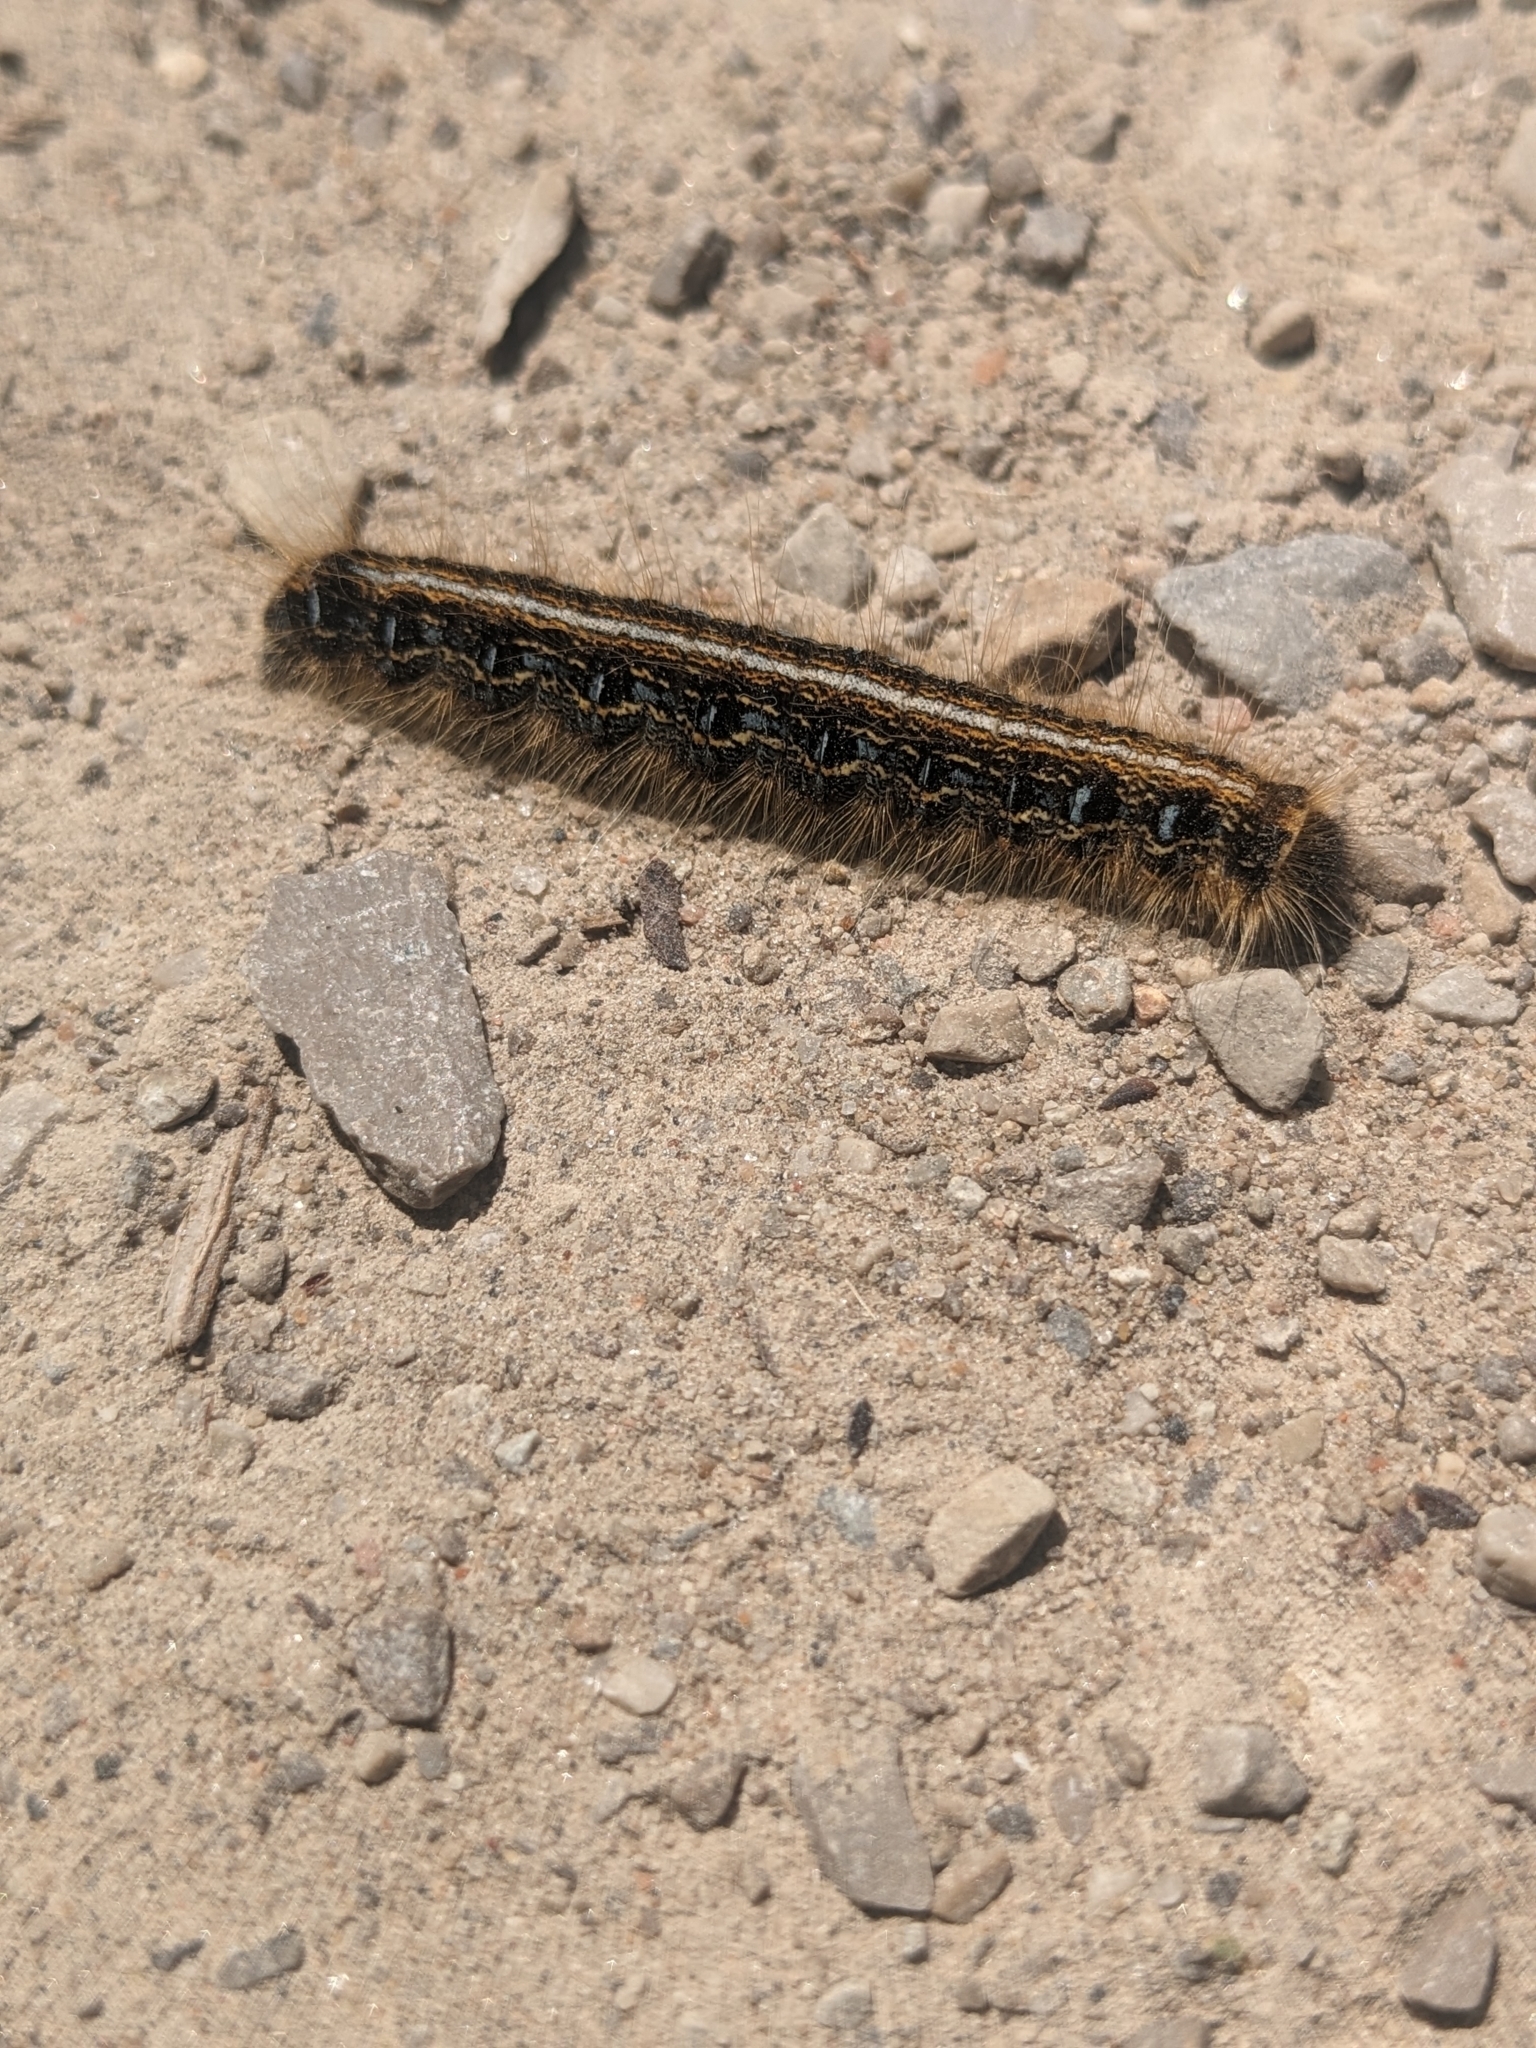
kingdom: Animalia
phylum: Arthropoda
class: Insecta
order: Lepidoptera
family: Lasiocampidae
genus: Malacosoma
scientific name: Malacosoma americana
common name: Eastern tent caterpillar moth
